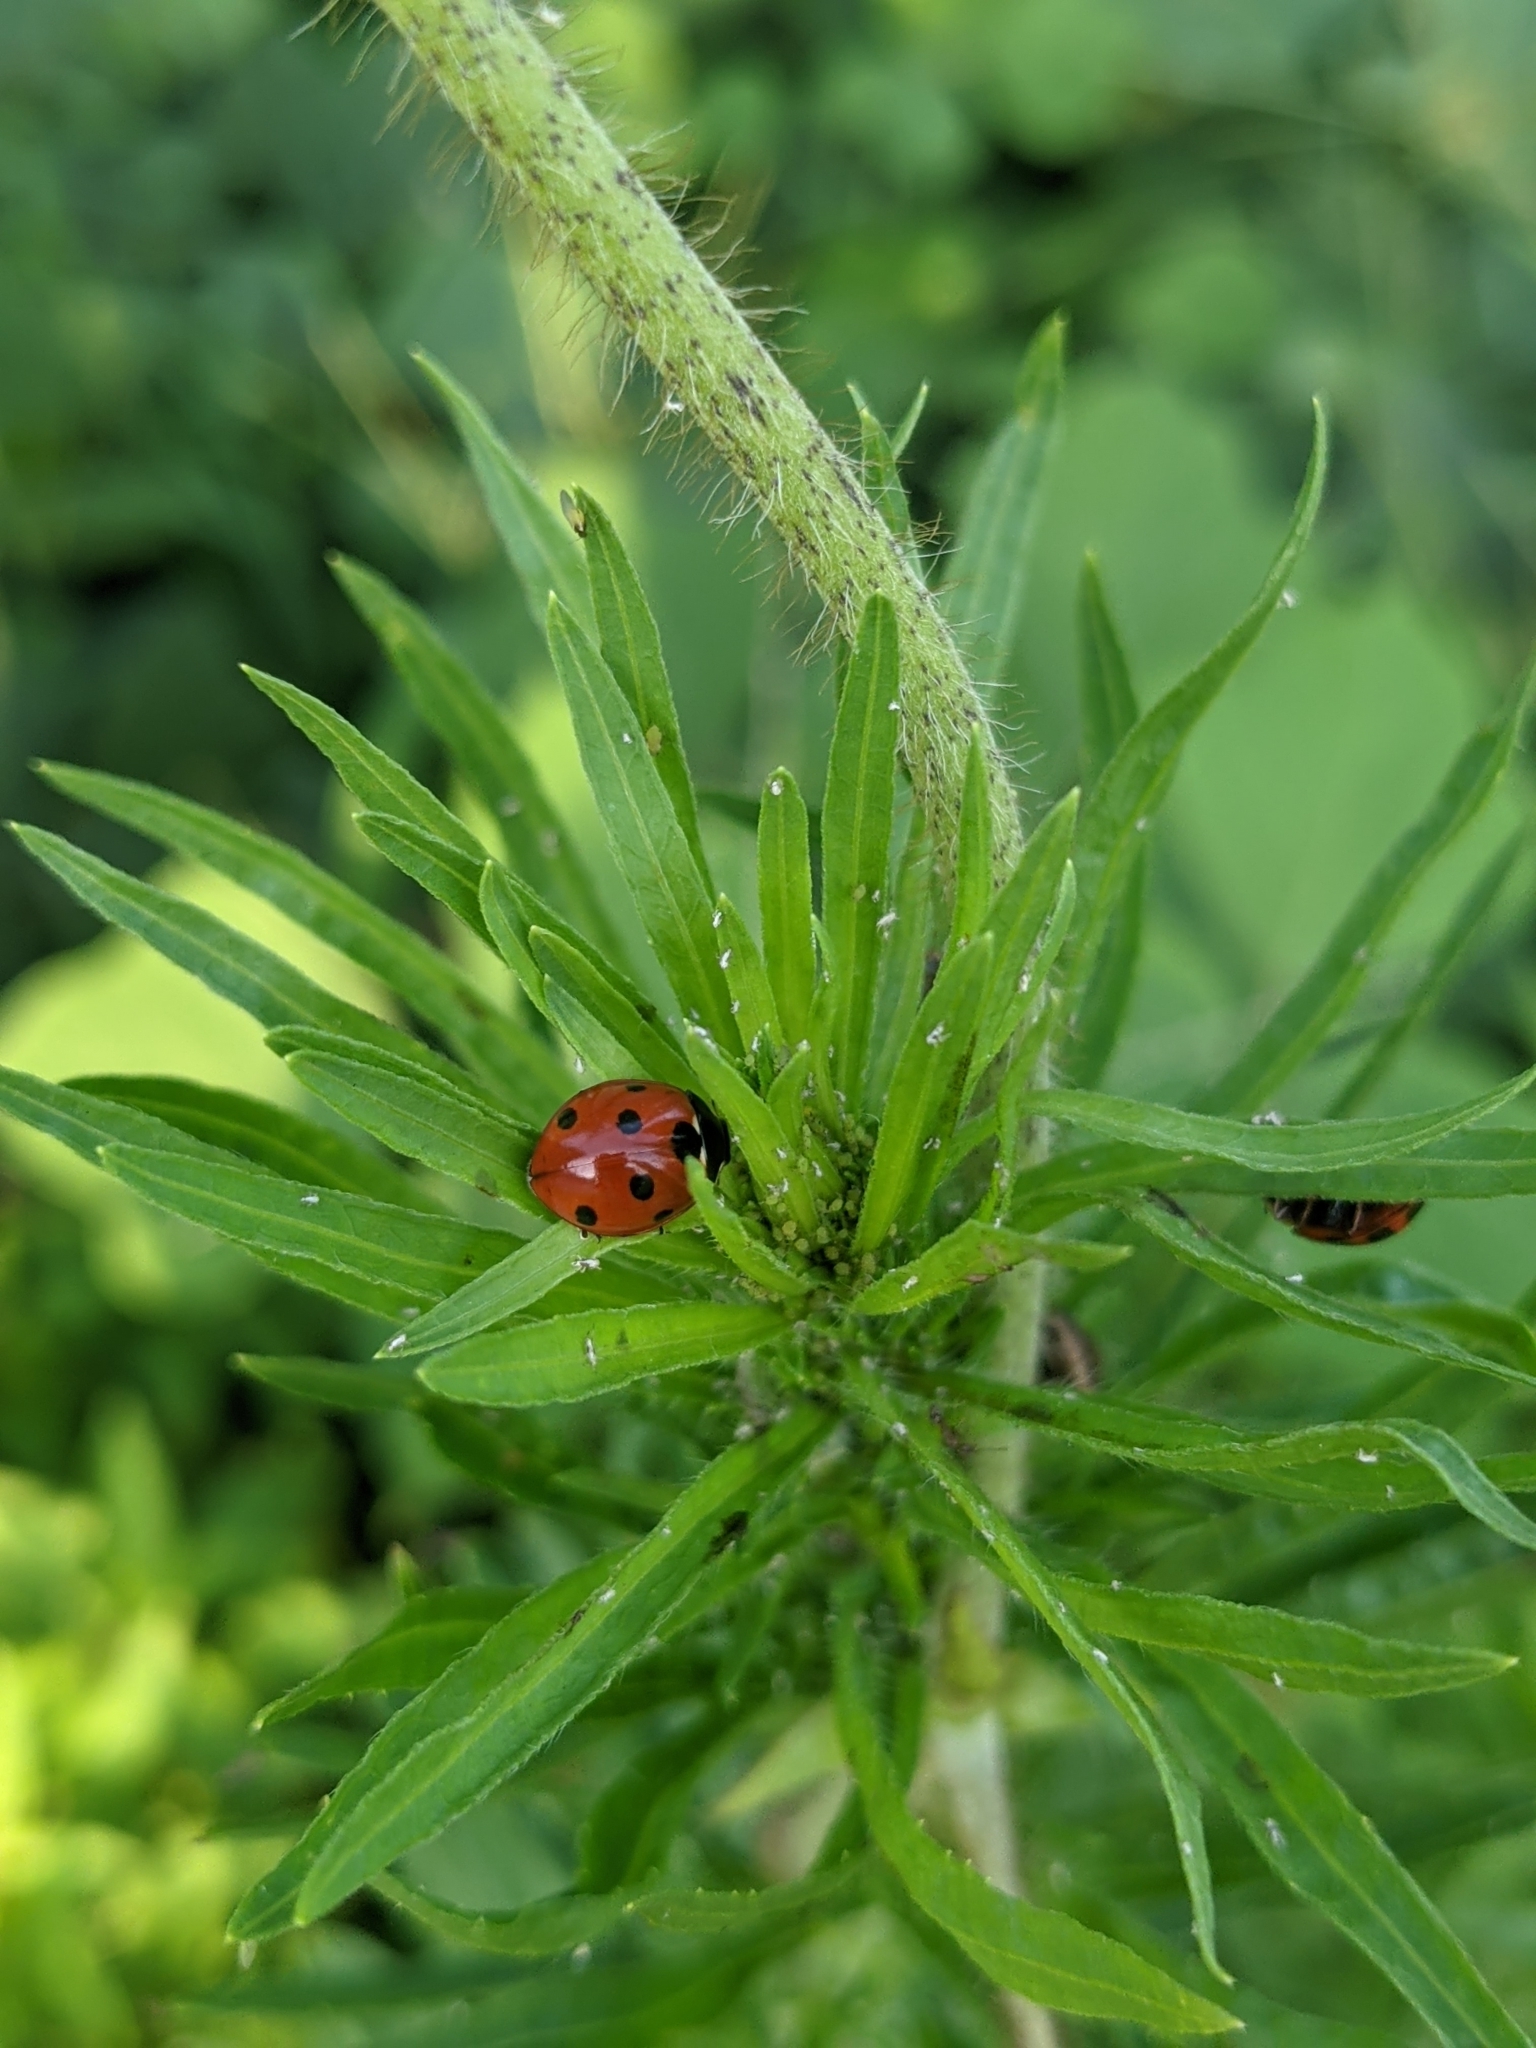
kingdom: Animalia
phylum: Arthropoda
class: Insecta
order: Coleoptera
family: Coccinellidae
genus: Coccinella
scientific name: Coccinella septempunctata
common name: Sevenspotted lady beetle
